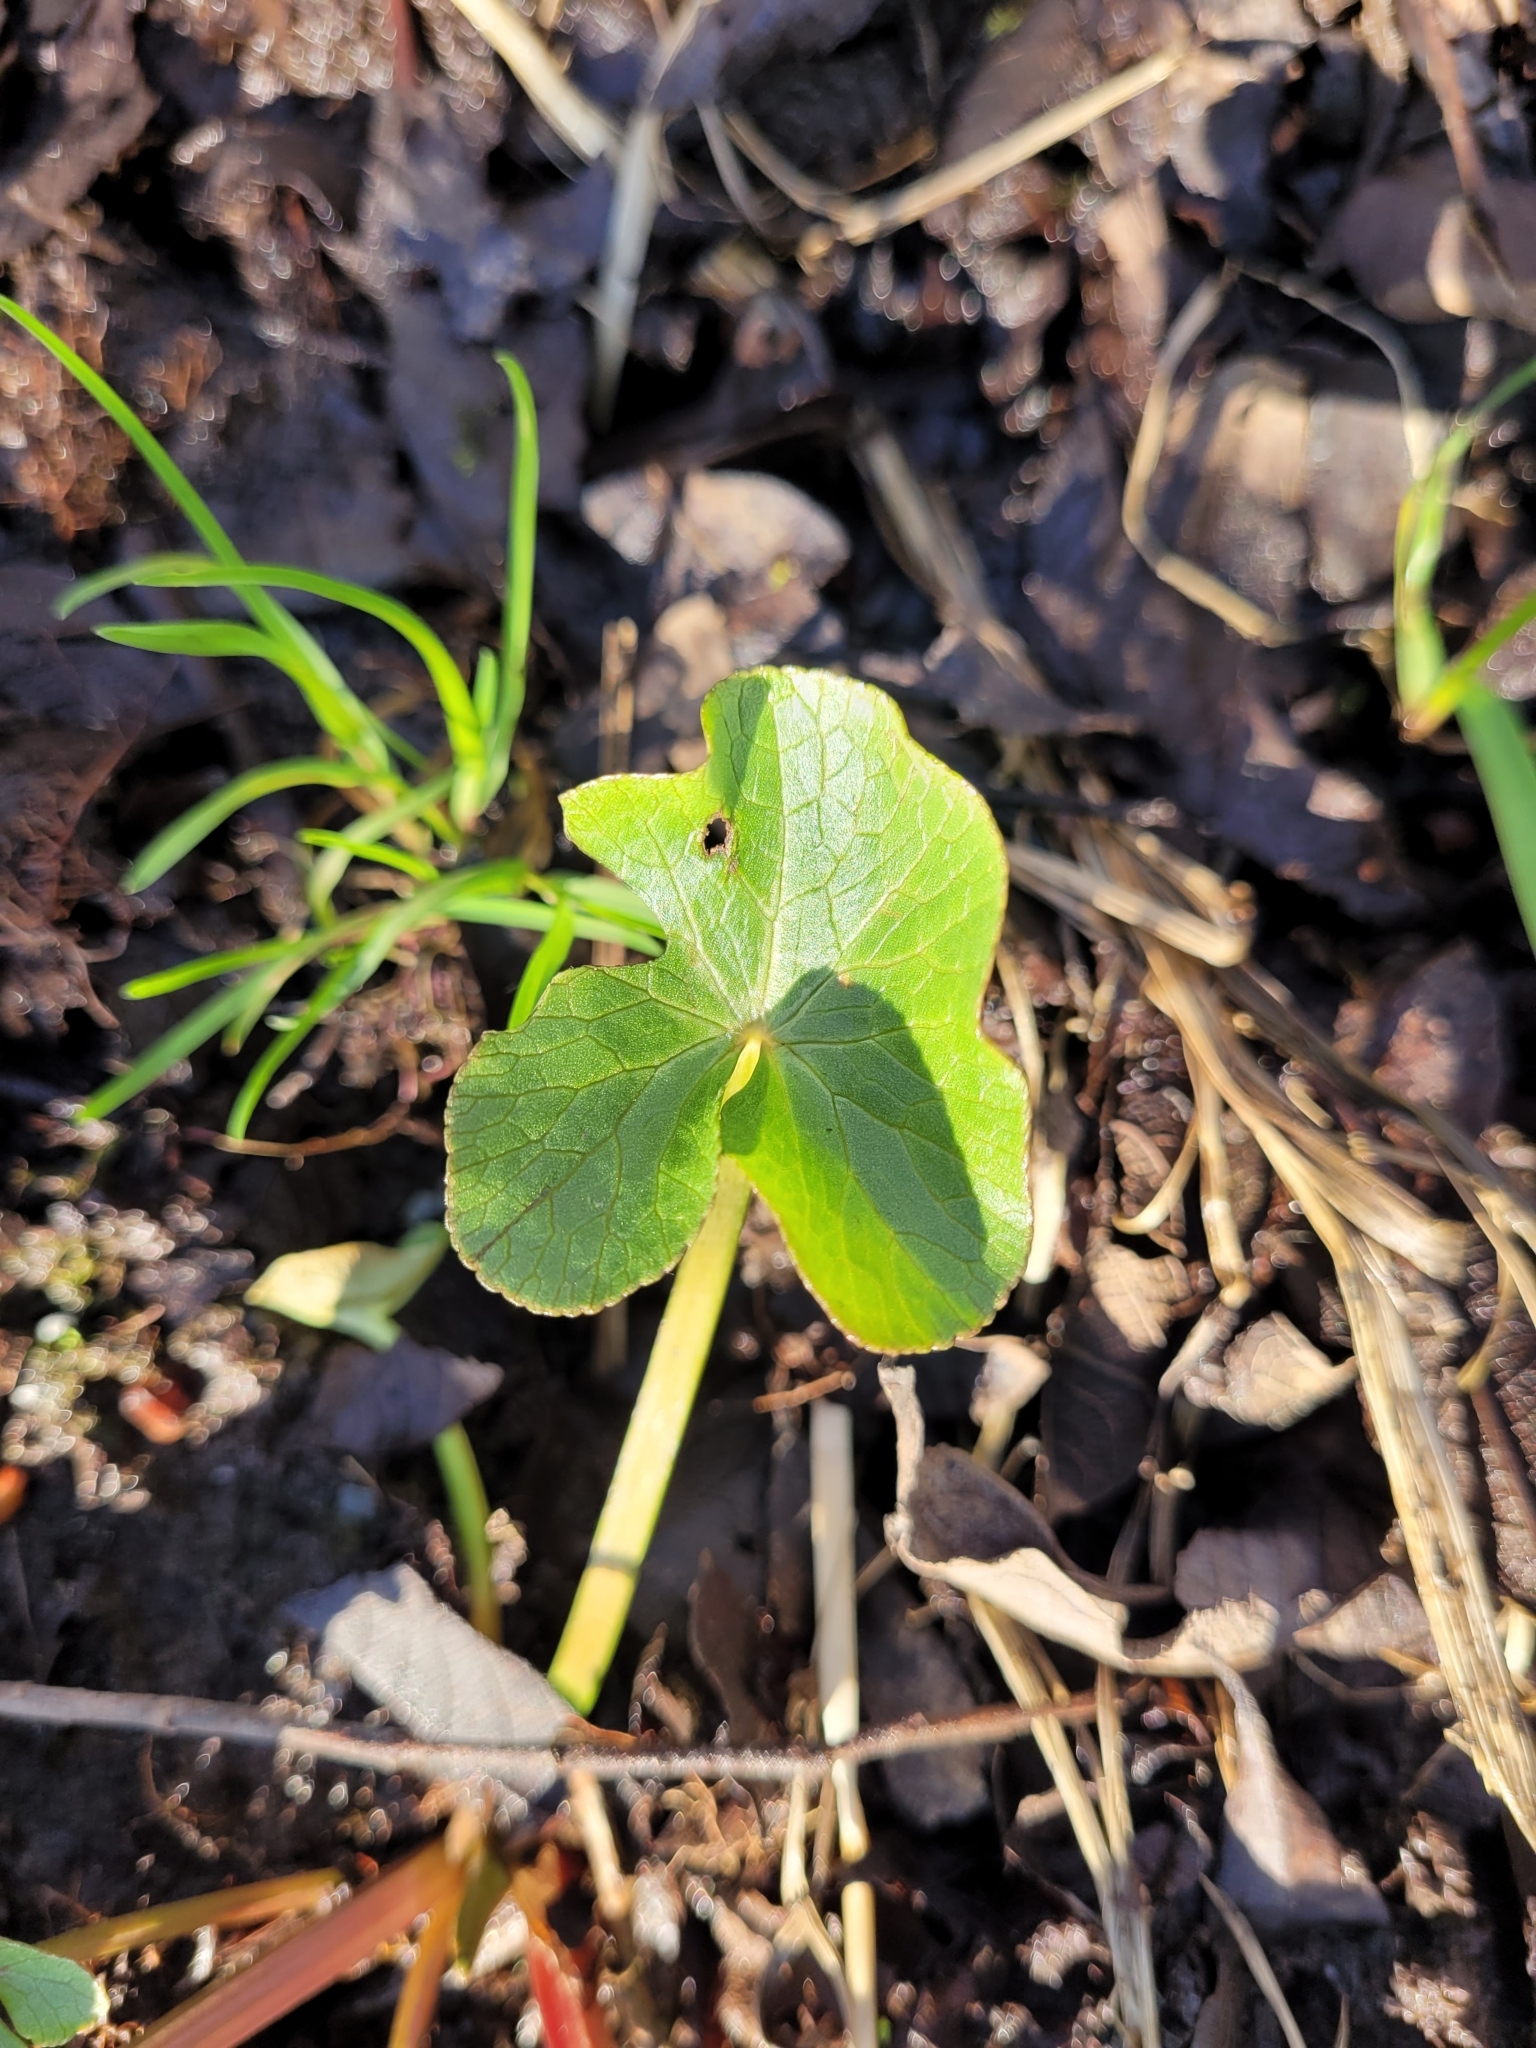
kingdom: Plantae
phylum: Tracheophyta
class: Magnoliopsida
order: Ranunculales
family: Ranunculaceae
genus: Caltha
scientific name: Caltha palustris
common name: Marsh marigold
